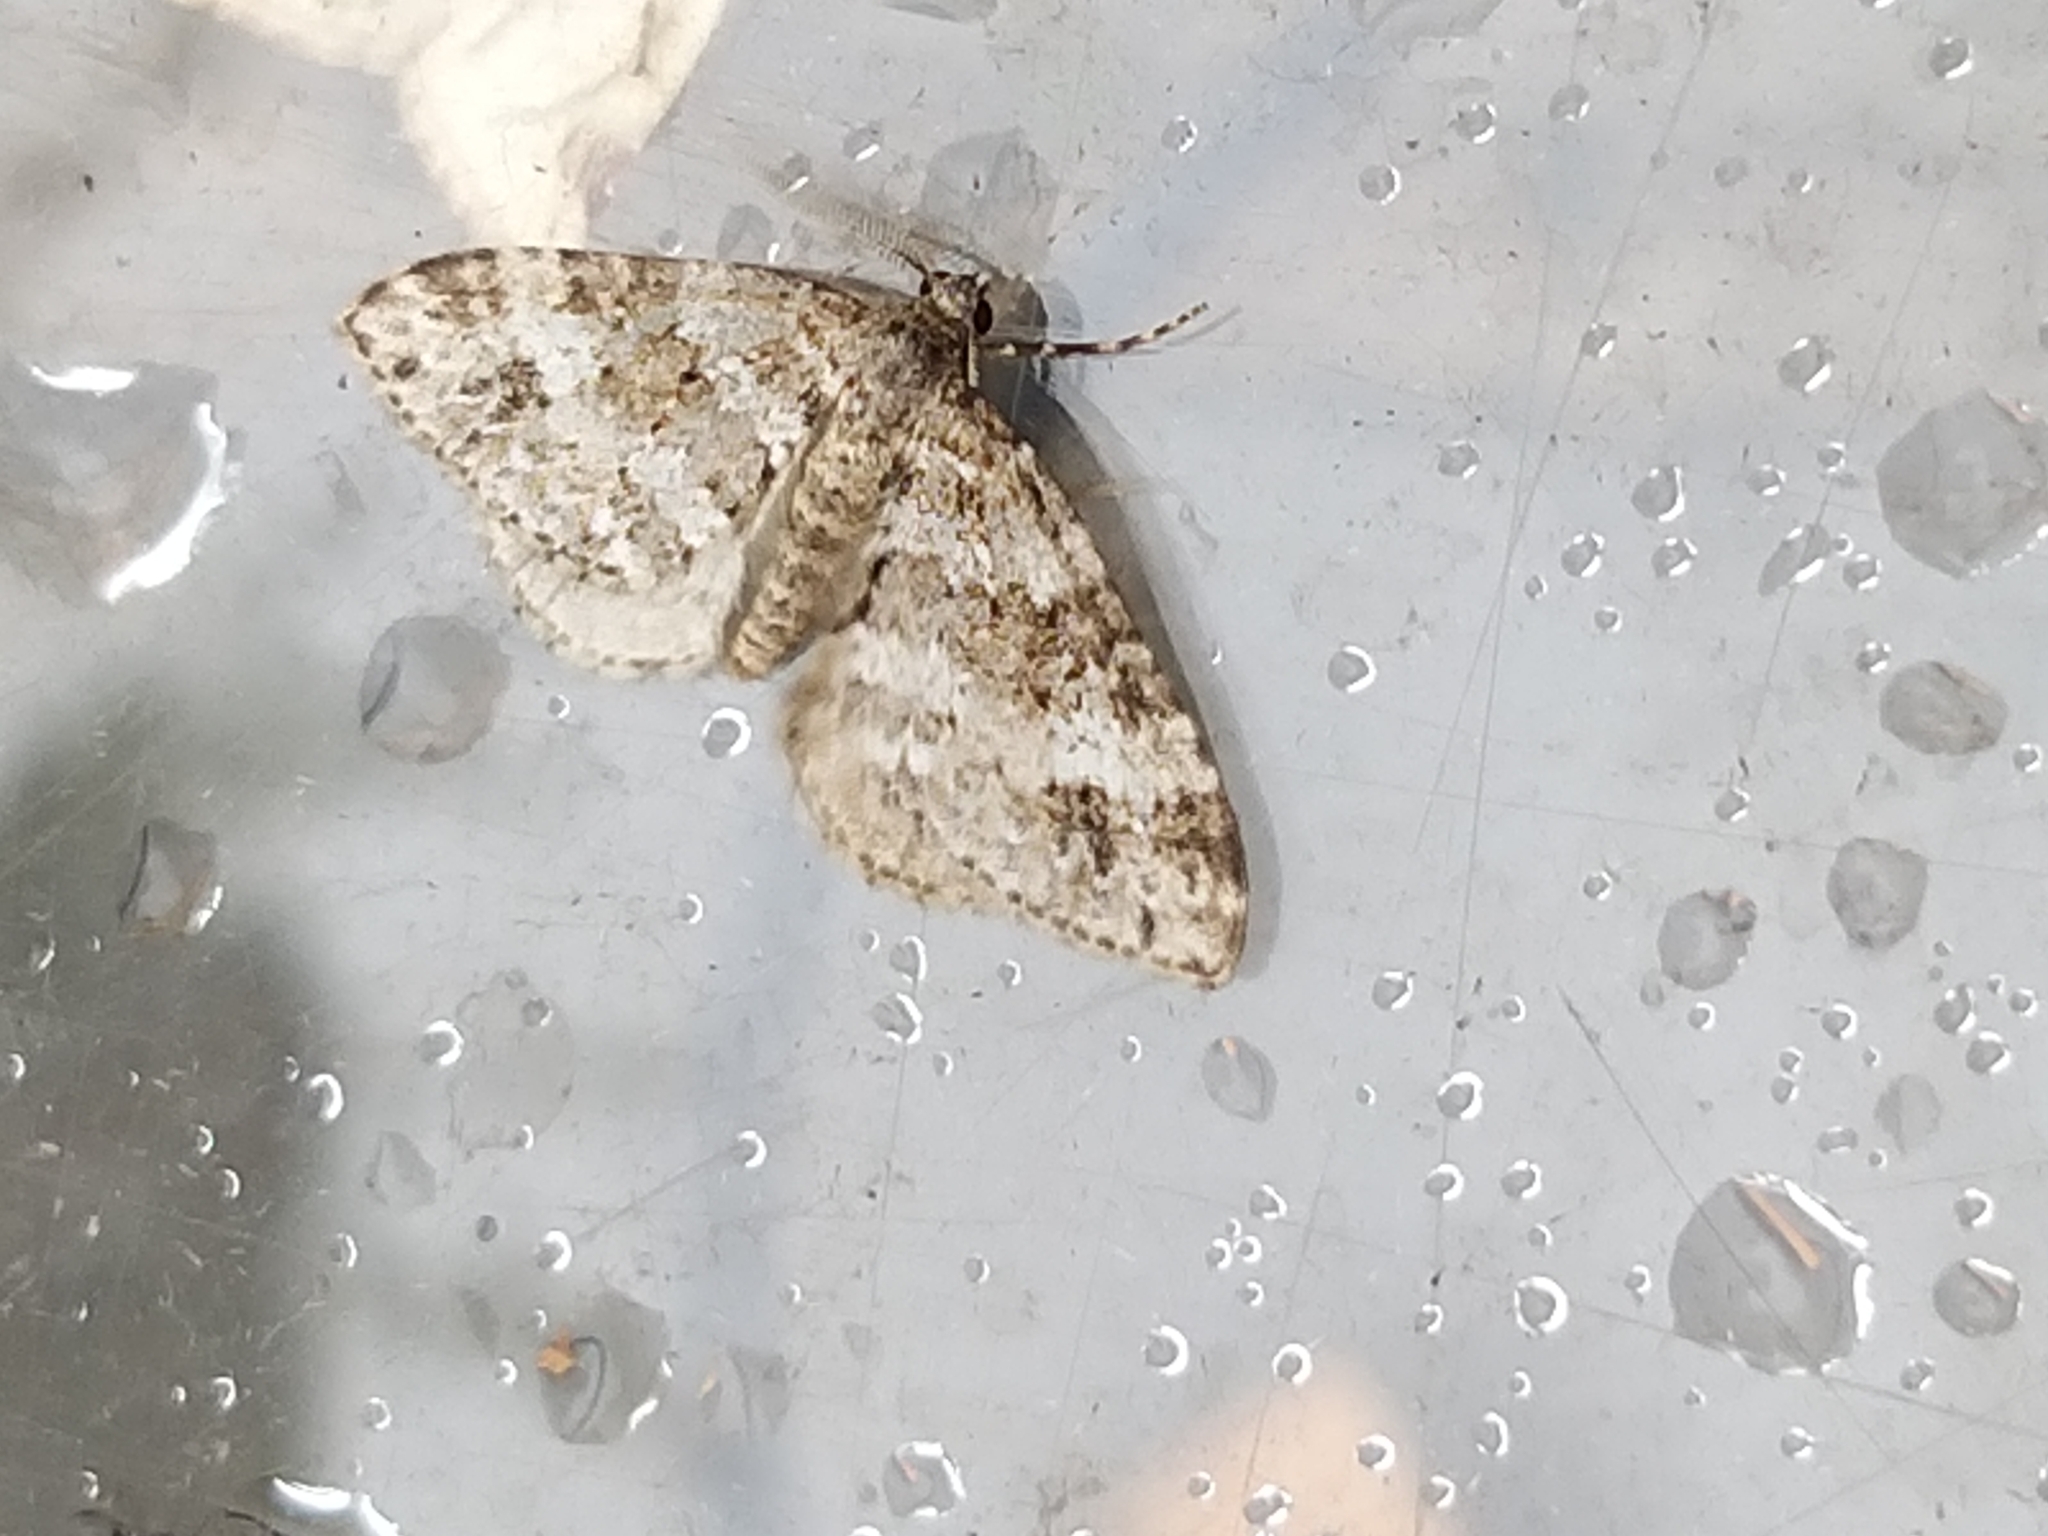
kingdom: Animalia
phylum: Arthropoda
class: Insecta
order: Lepidoptera
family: Geometridae
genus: Perizoma
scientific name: Perizoma didymata
